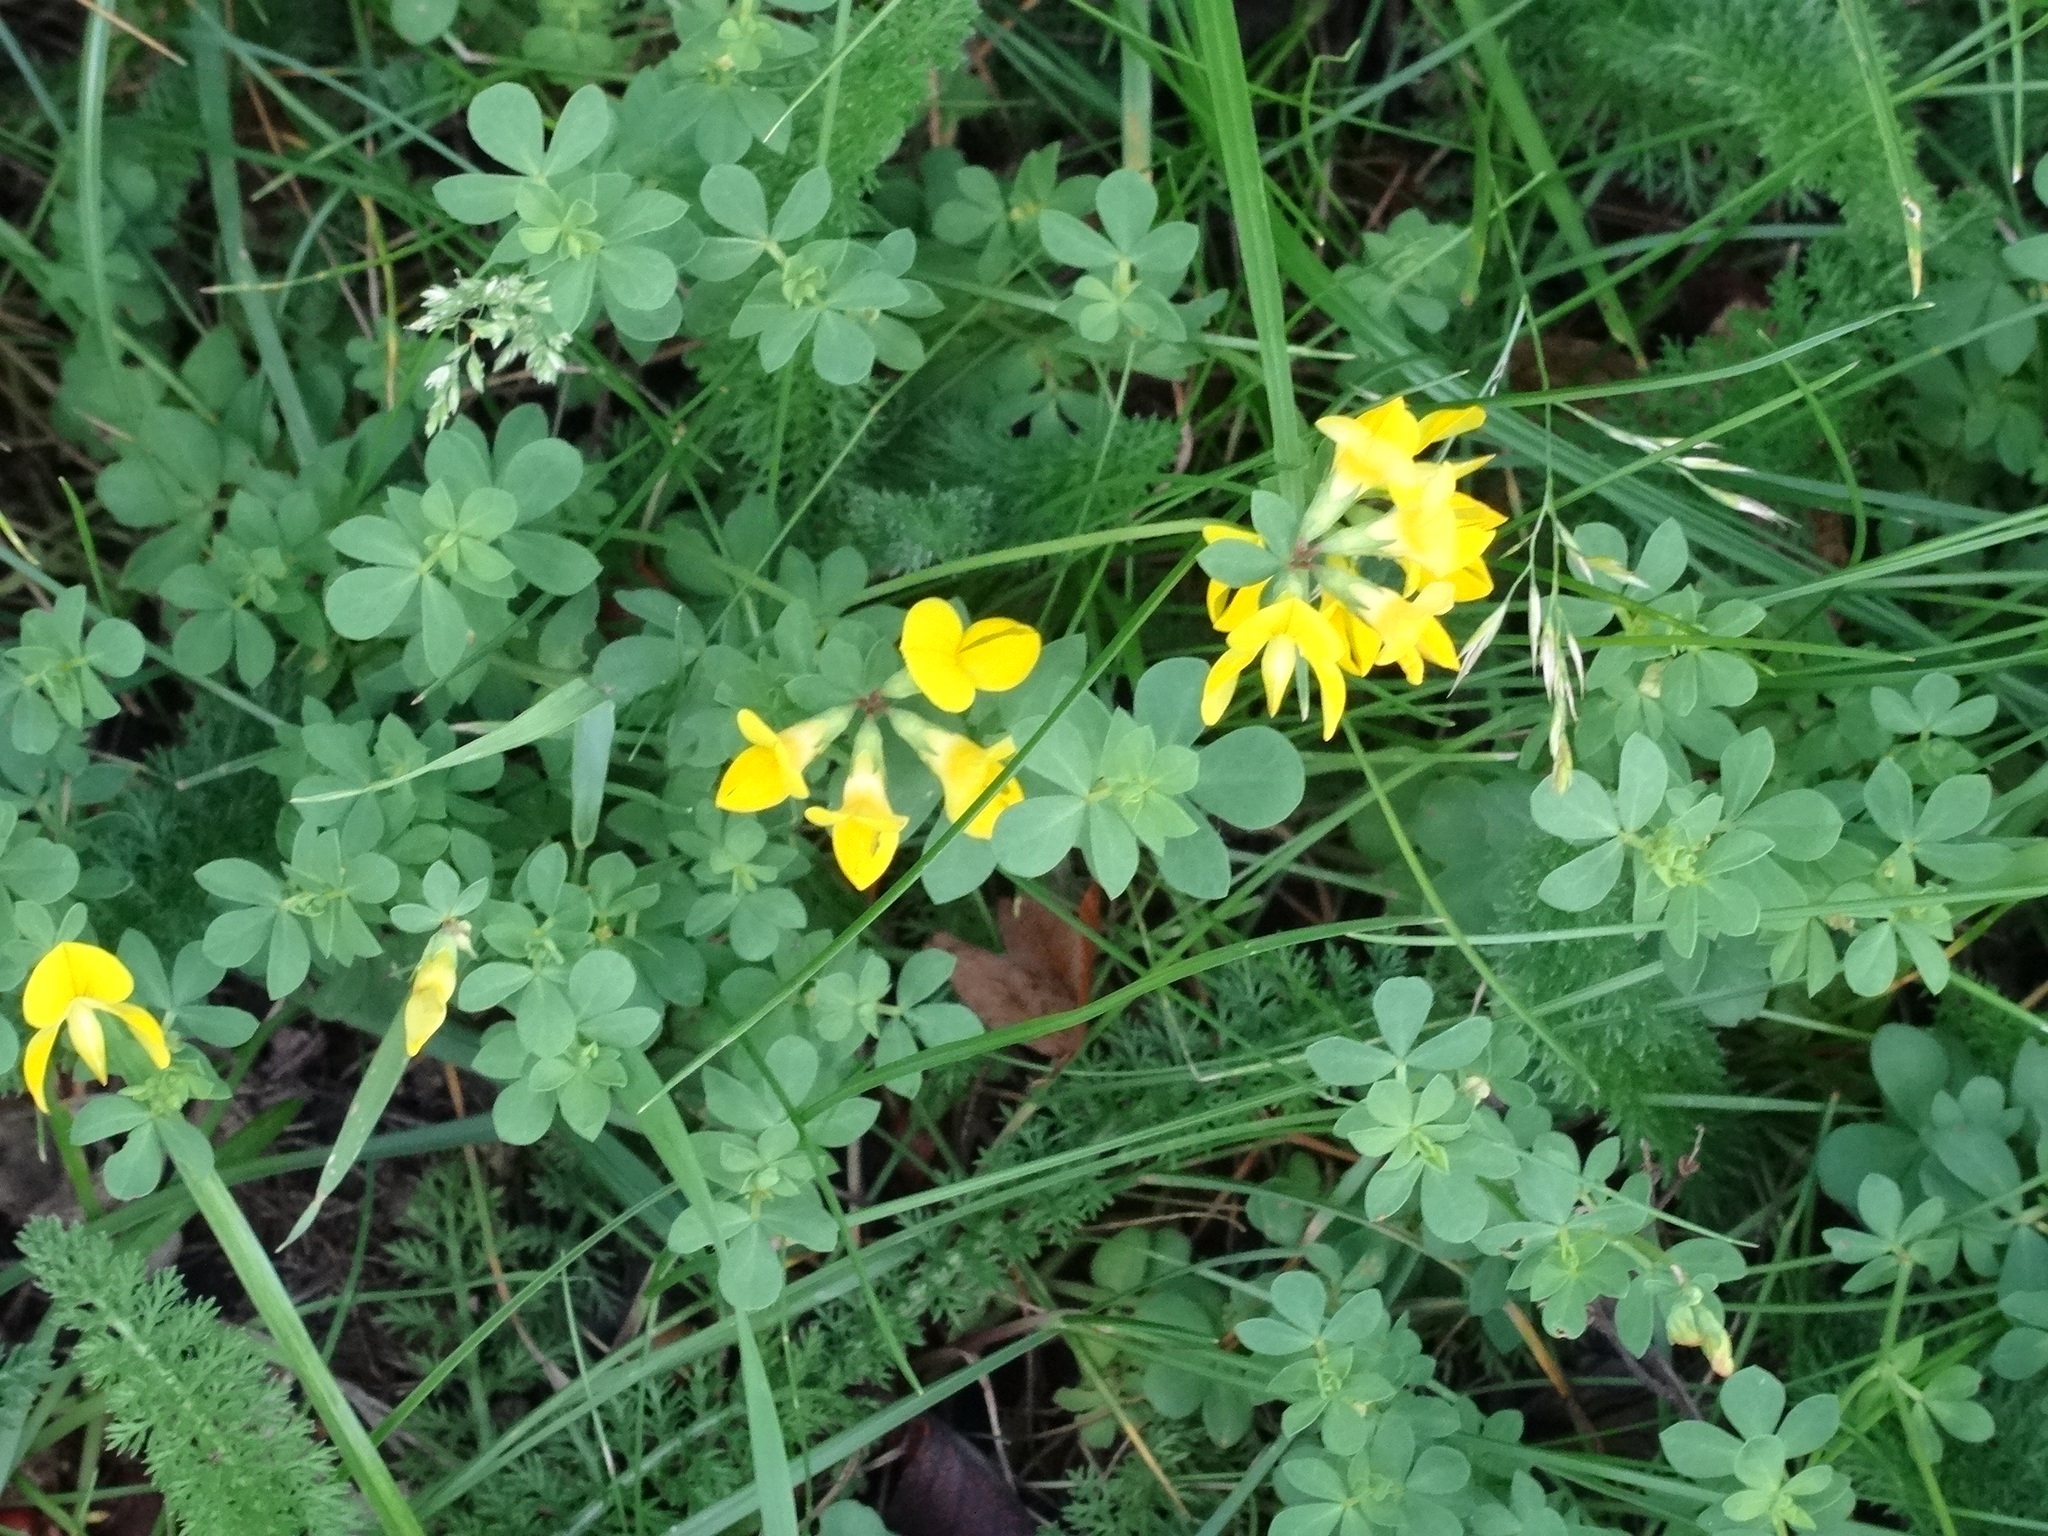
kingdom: Plantae
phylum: Tracheophyta
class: Magnoliopsida
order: Fabales
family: Fabaceae
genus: Lotus
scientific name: Lotus corniculatus
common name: Common bird's-foot-trefoil
